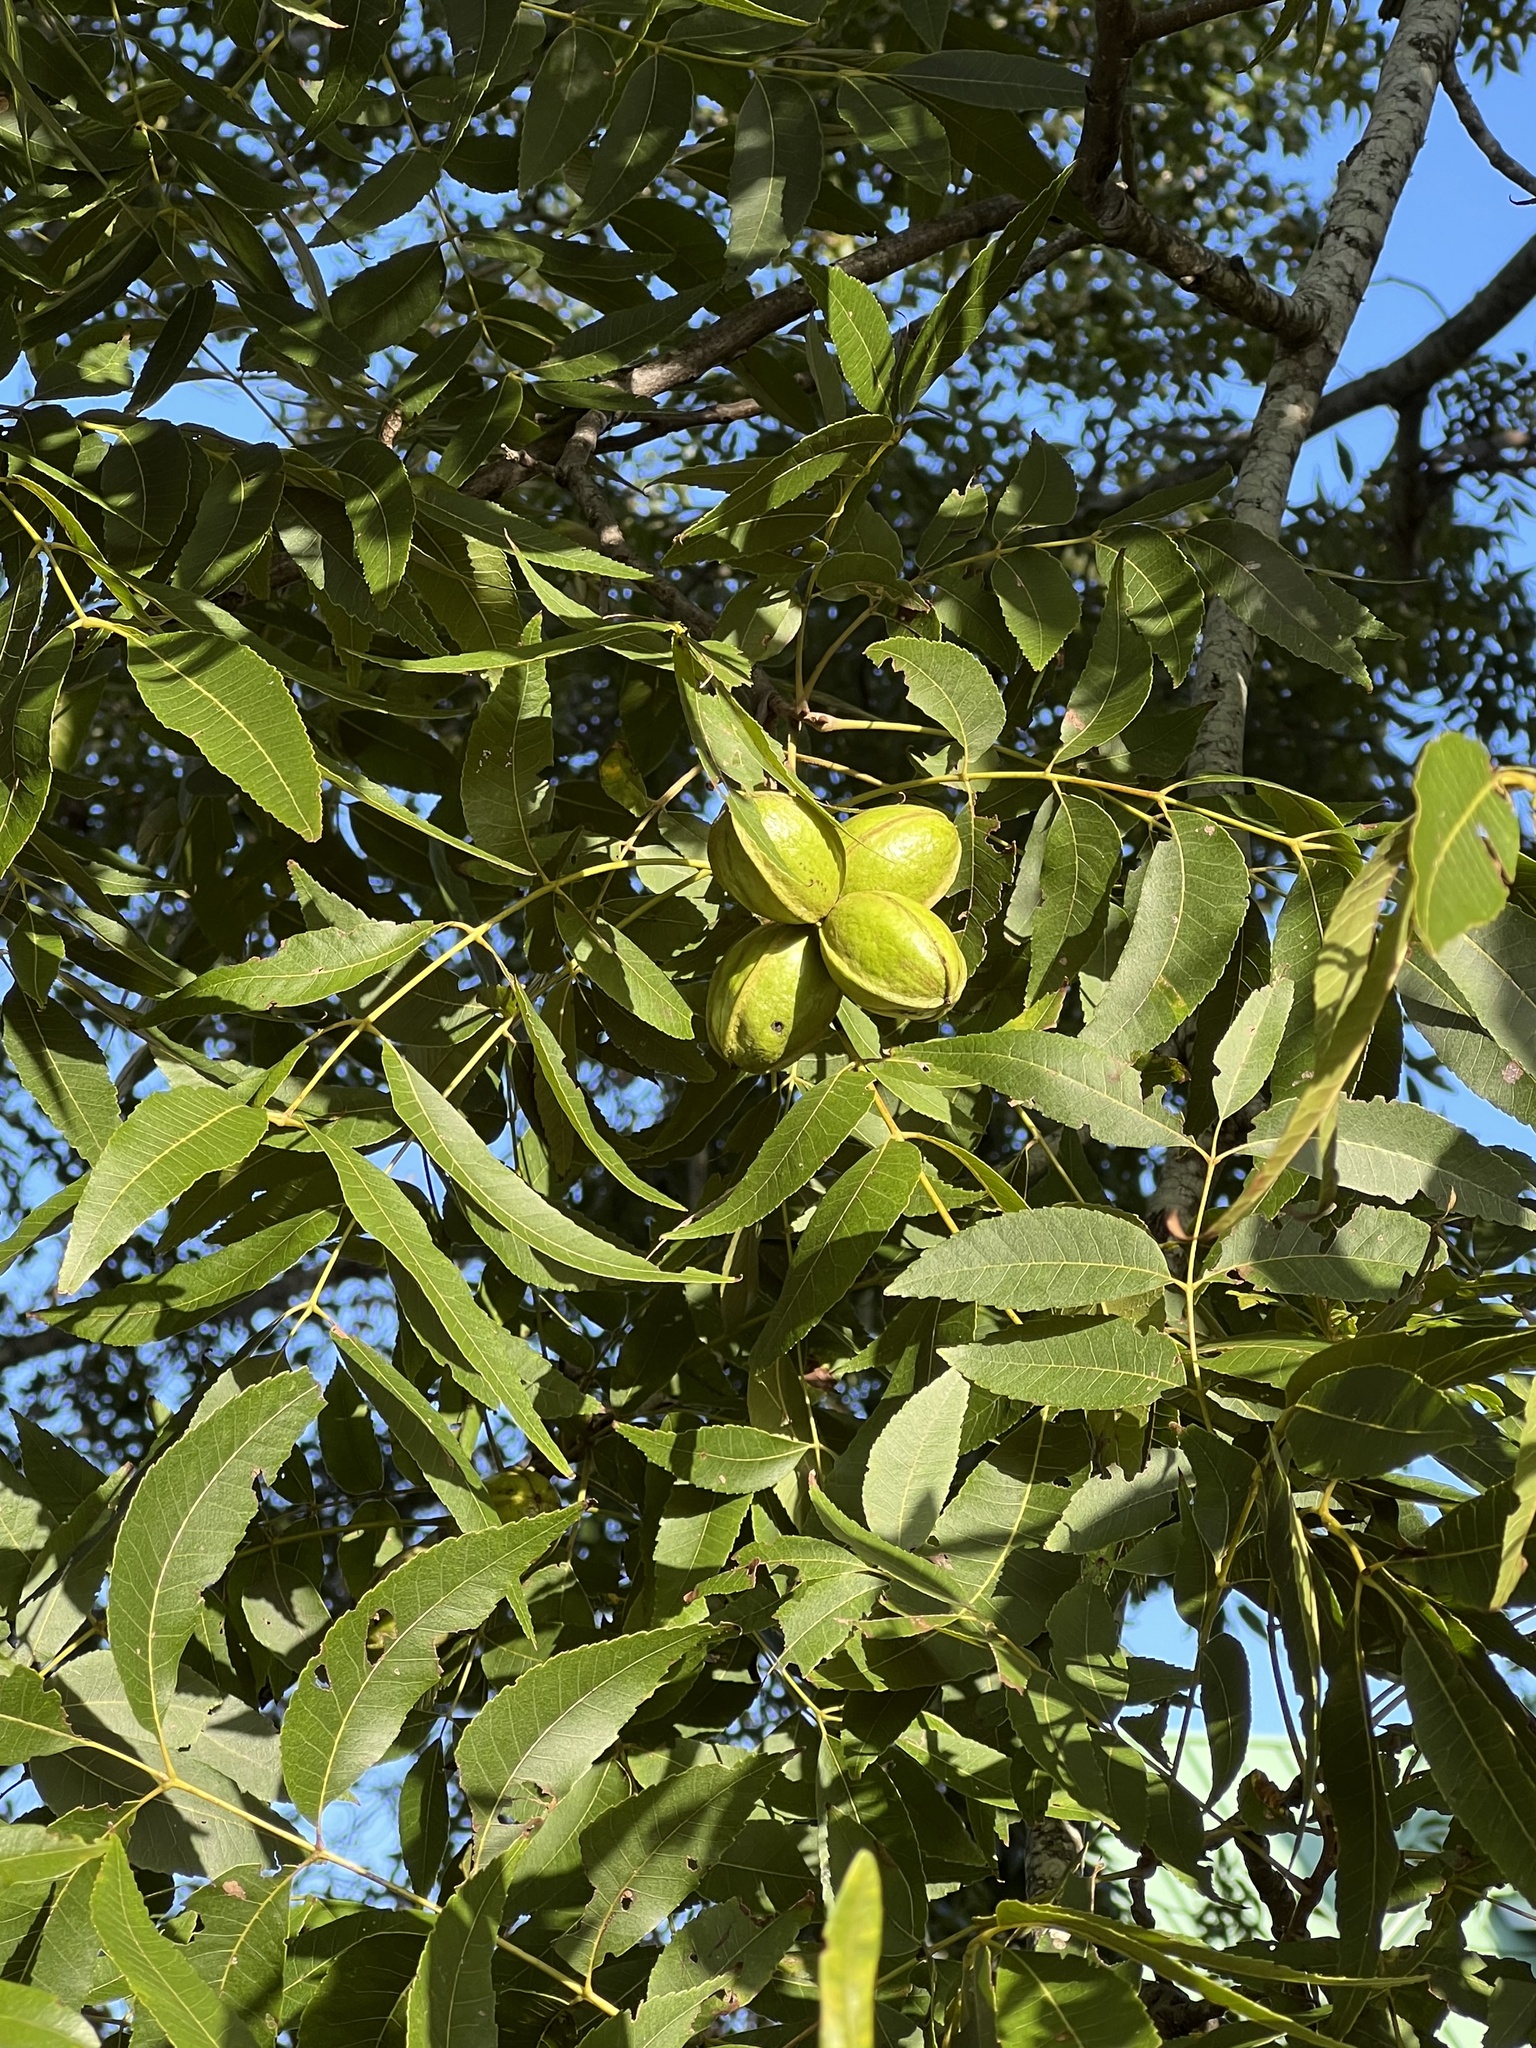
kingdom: Plantae
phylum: Tracheophyta
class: Magnoliopsida
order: Fagales
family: Juglandaceae
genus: Carya
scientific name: Carya illinoinensis
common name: Pecan
